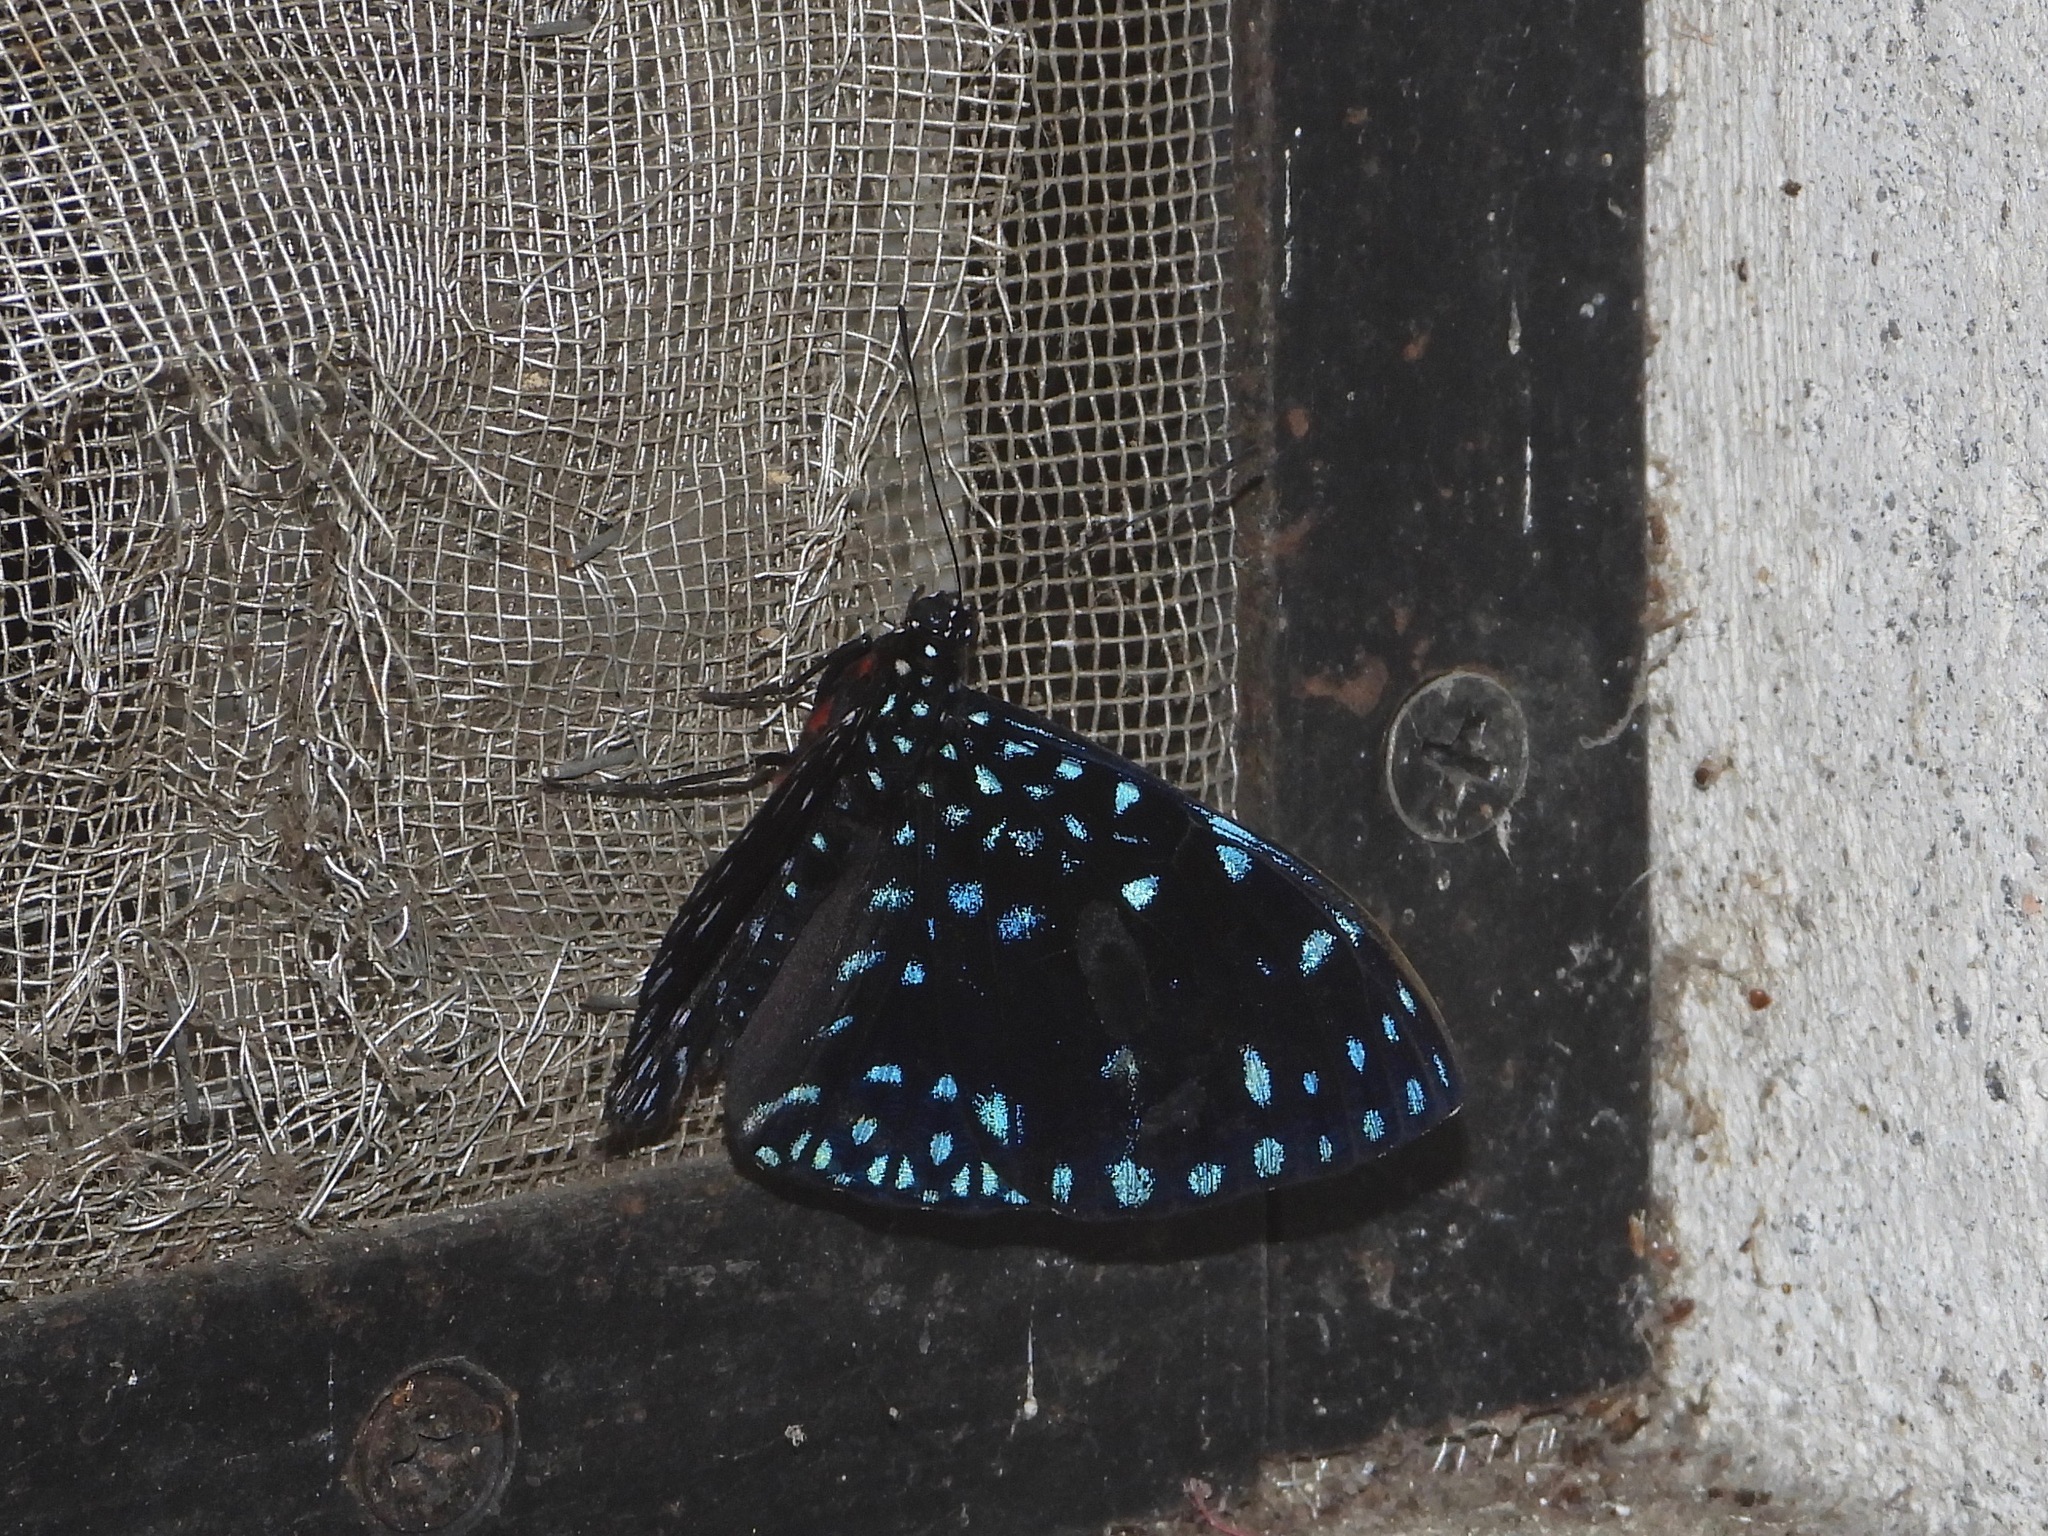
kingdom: Animalia
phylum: Arthropoda
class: Insecta
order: Lepidoptera
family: Nymphalidae
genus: Hamadryas
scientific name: Hamadryas laodamia
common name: Starry night cracker
